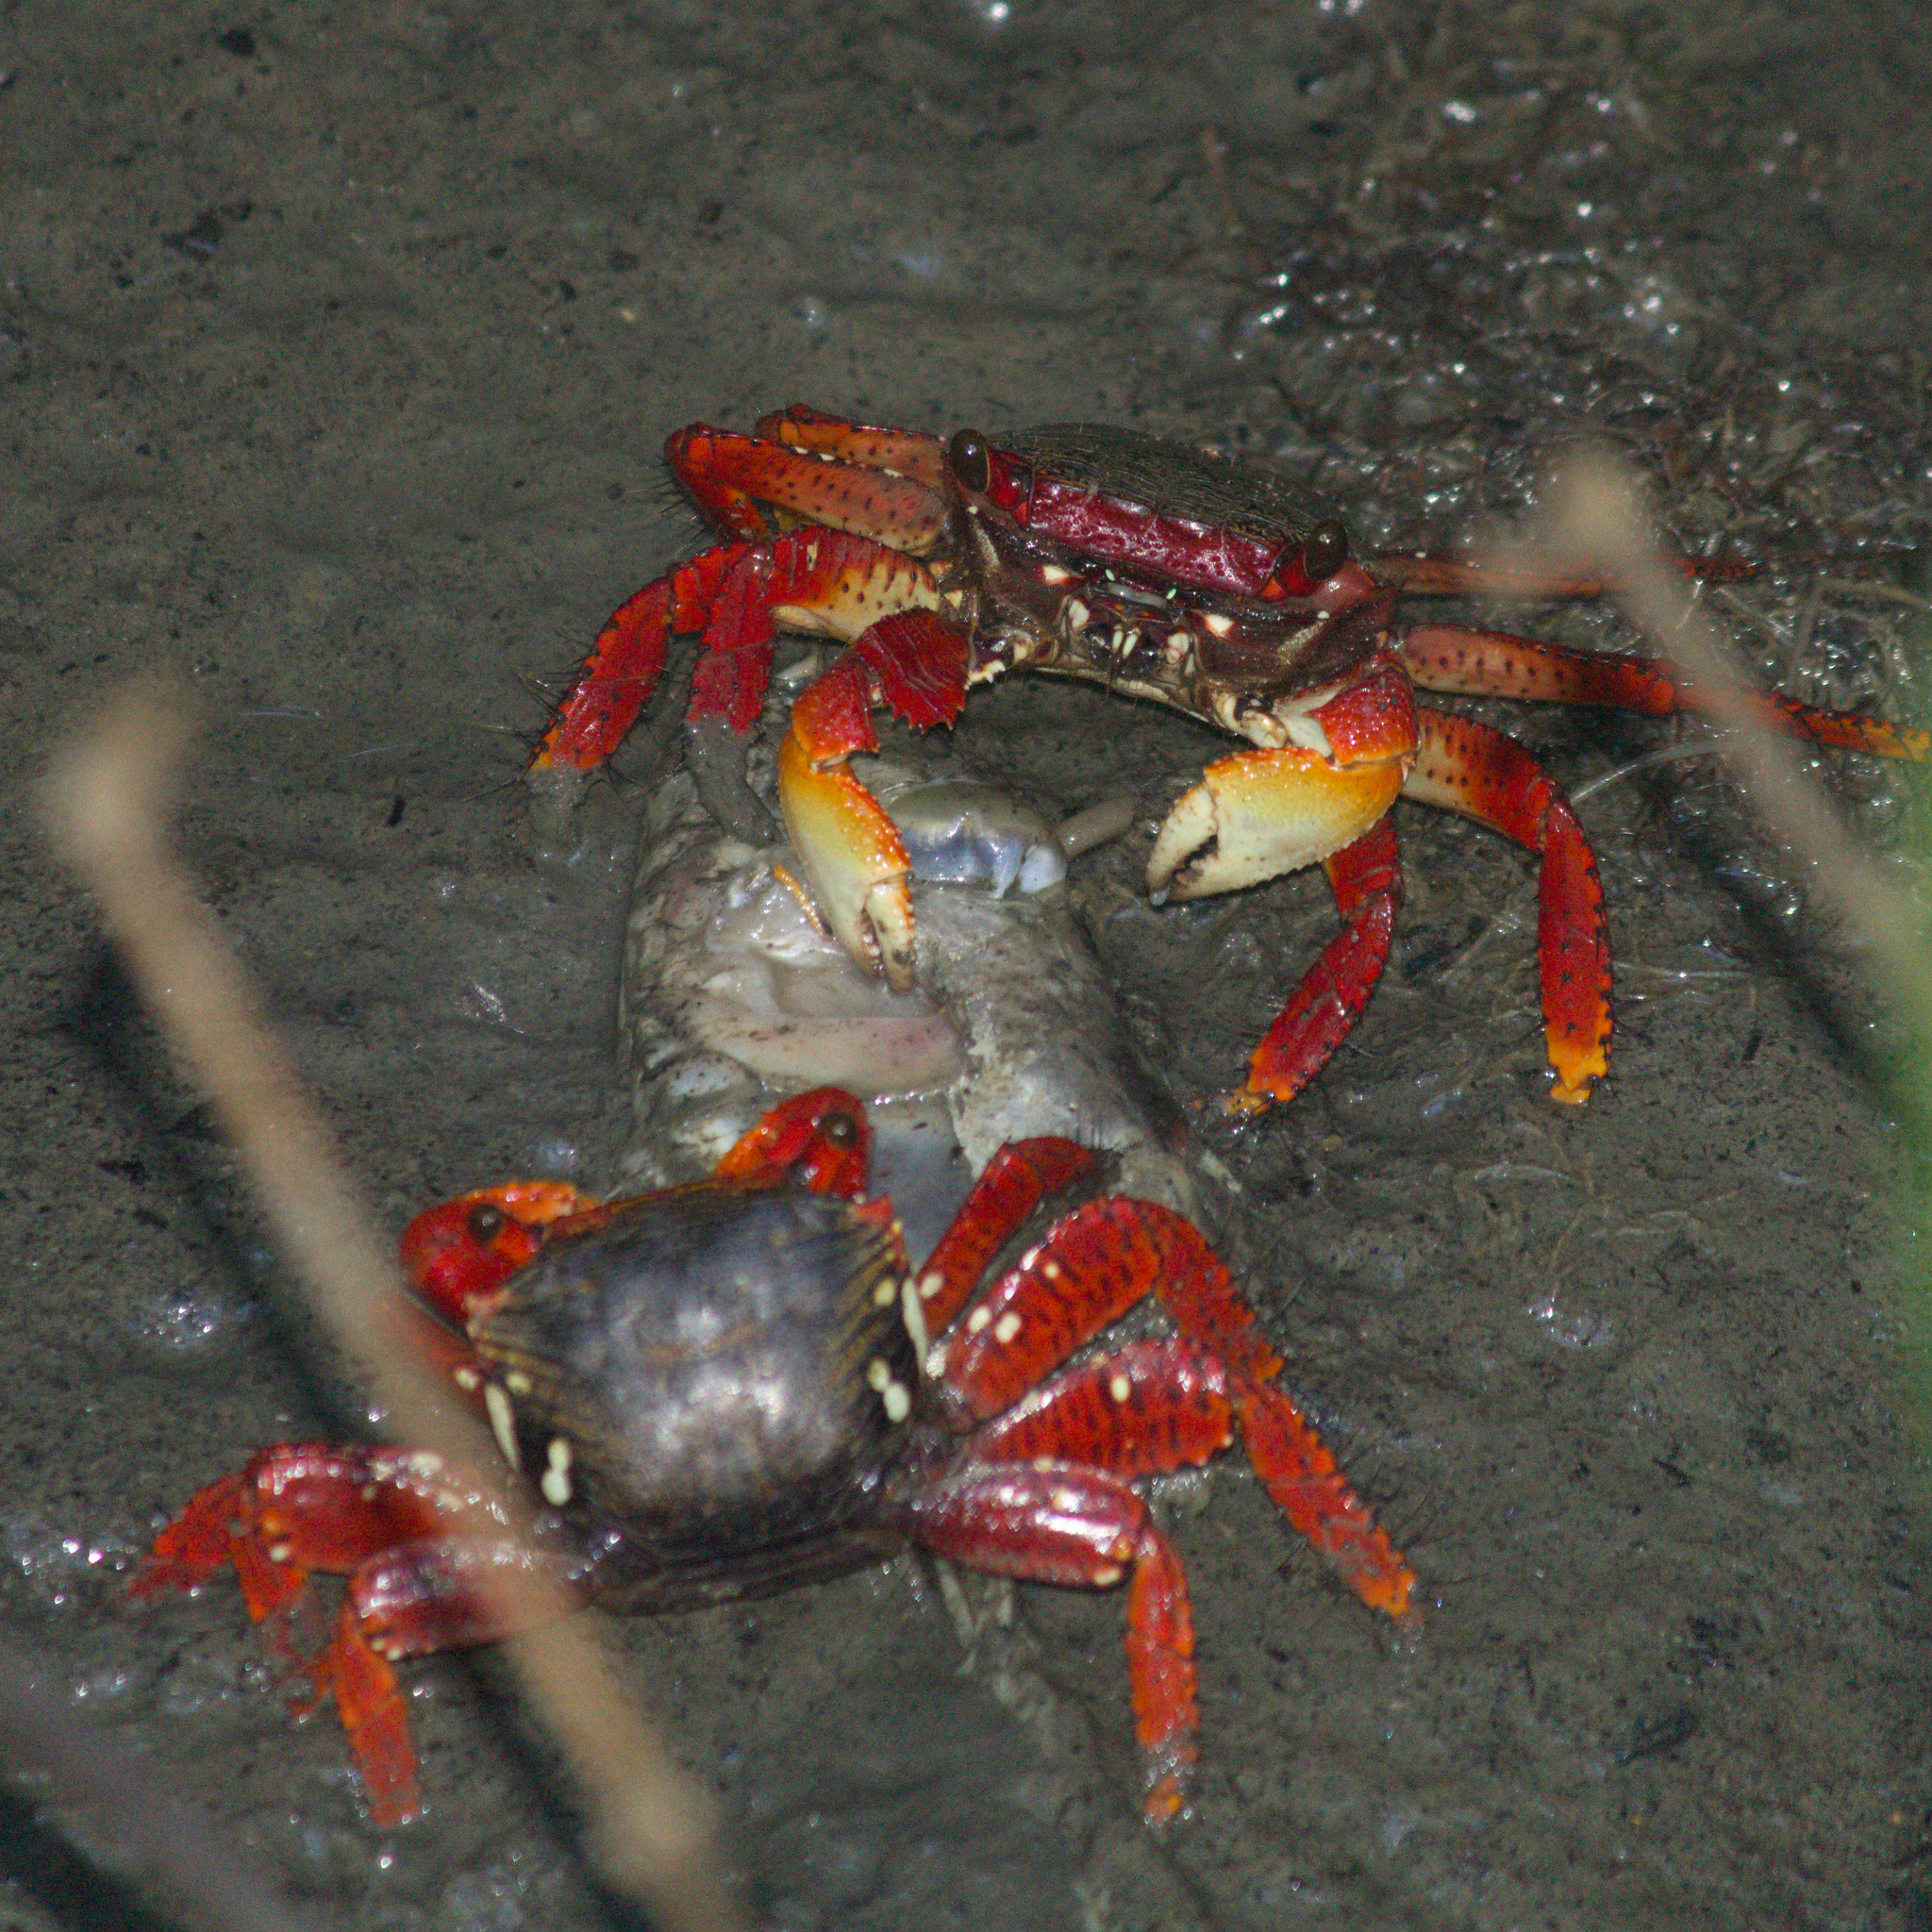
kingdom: Animalia
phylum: Arthropoda
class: Malacostraca
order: Decapoda
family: Grapsidae
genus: Goniopsis
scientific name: Goniopsis cruentata
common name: Mangrove crab
